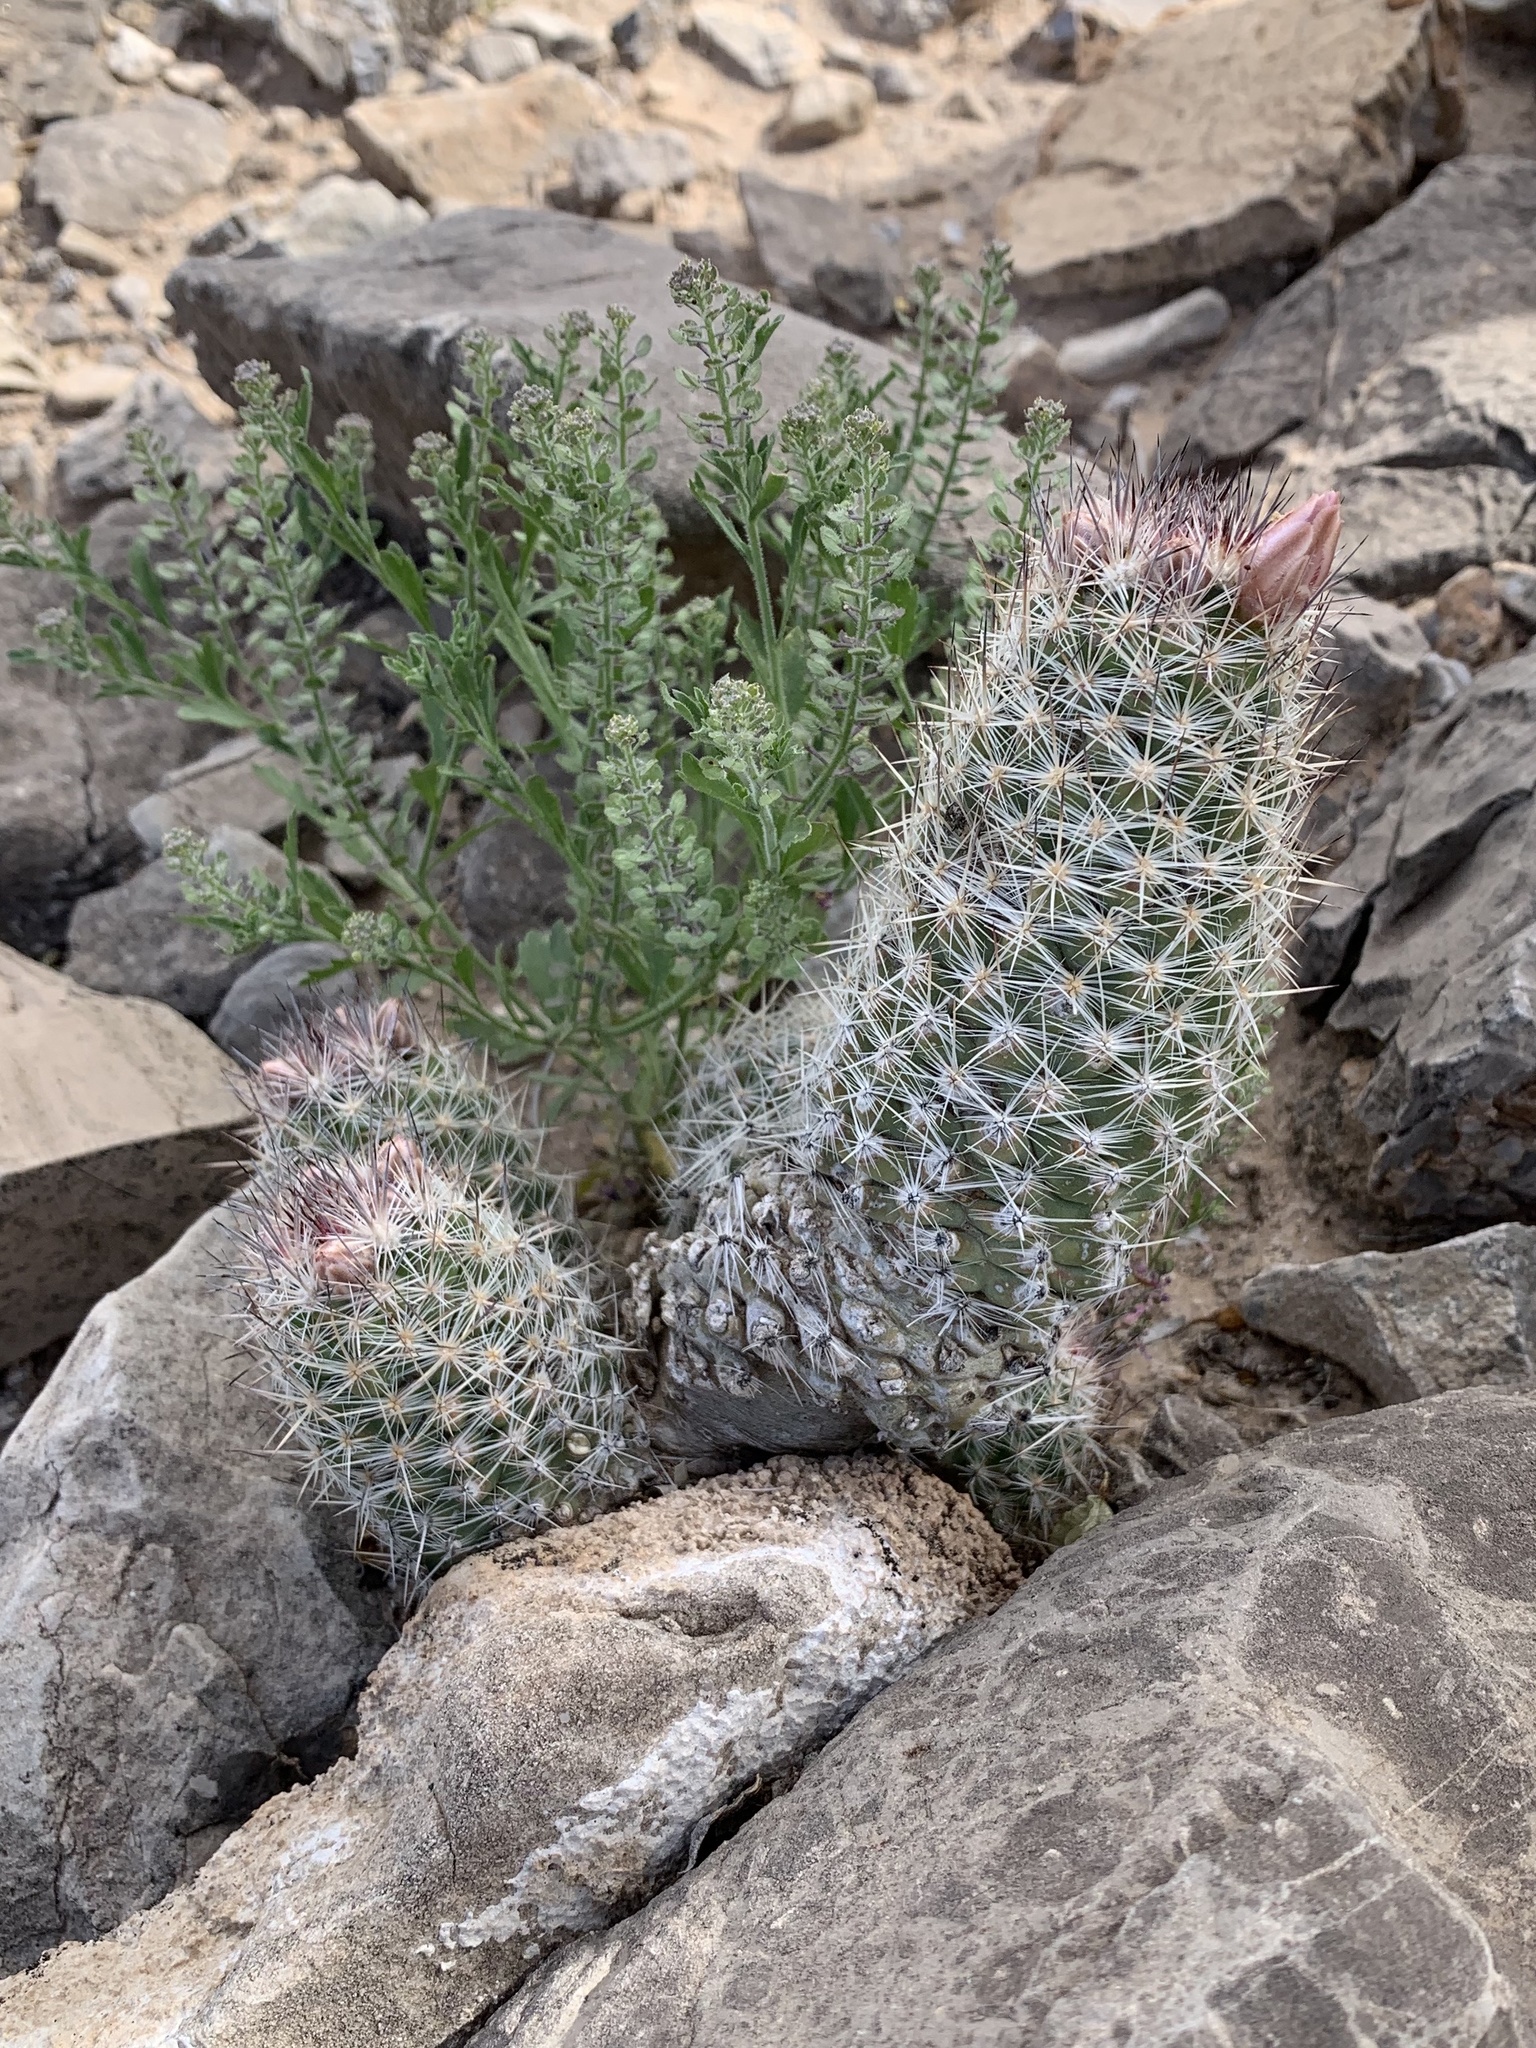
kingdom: Plantae
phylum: Tracheophyta
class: Magnoliopsida
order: Caryophyllales
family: Cactaceae
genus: Pelecyphora
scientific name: Pelecyphora tuberculosa
